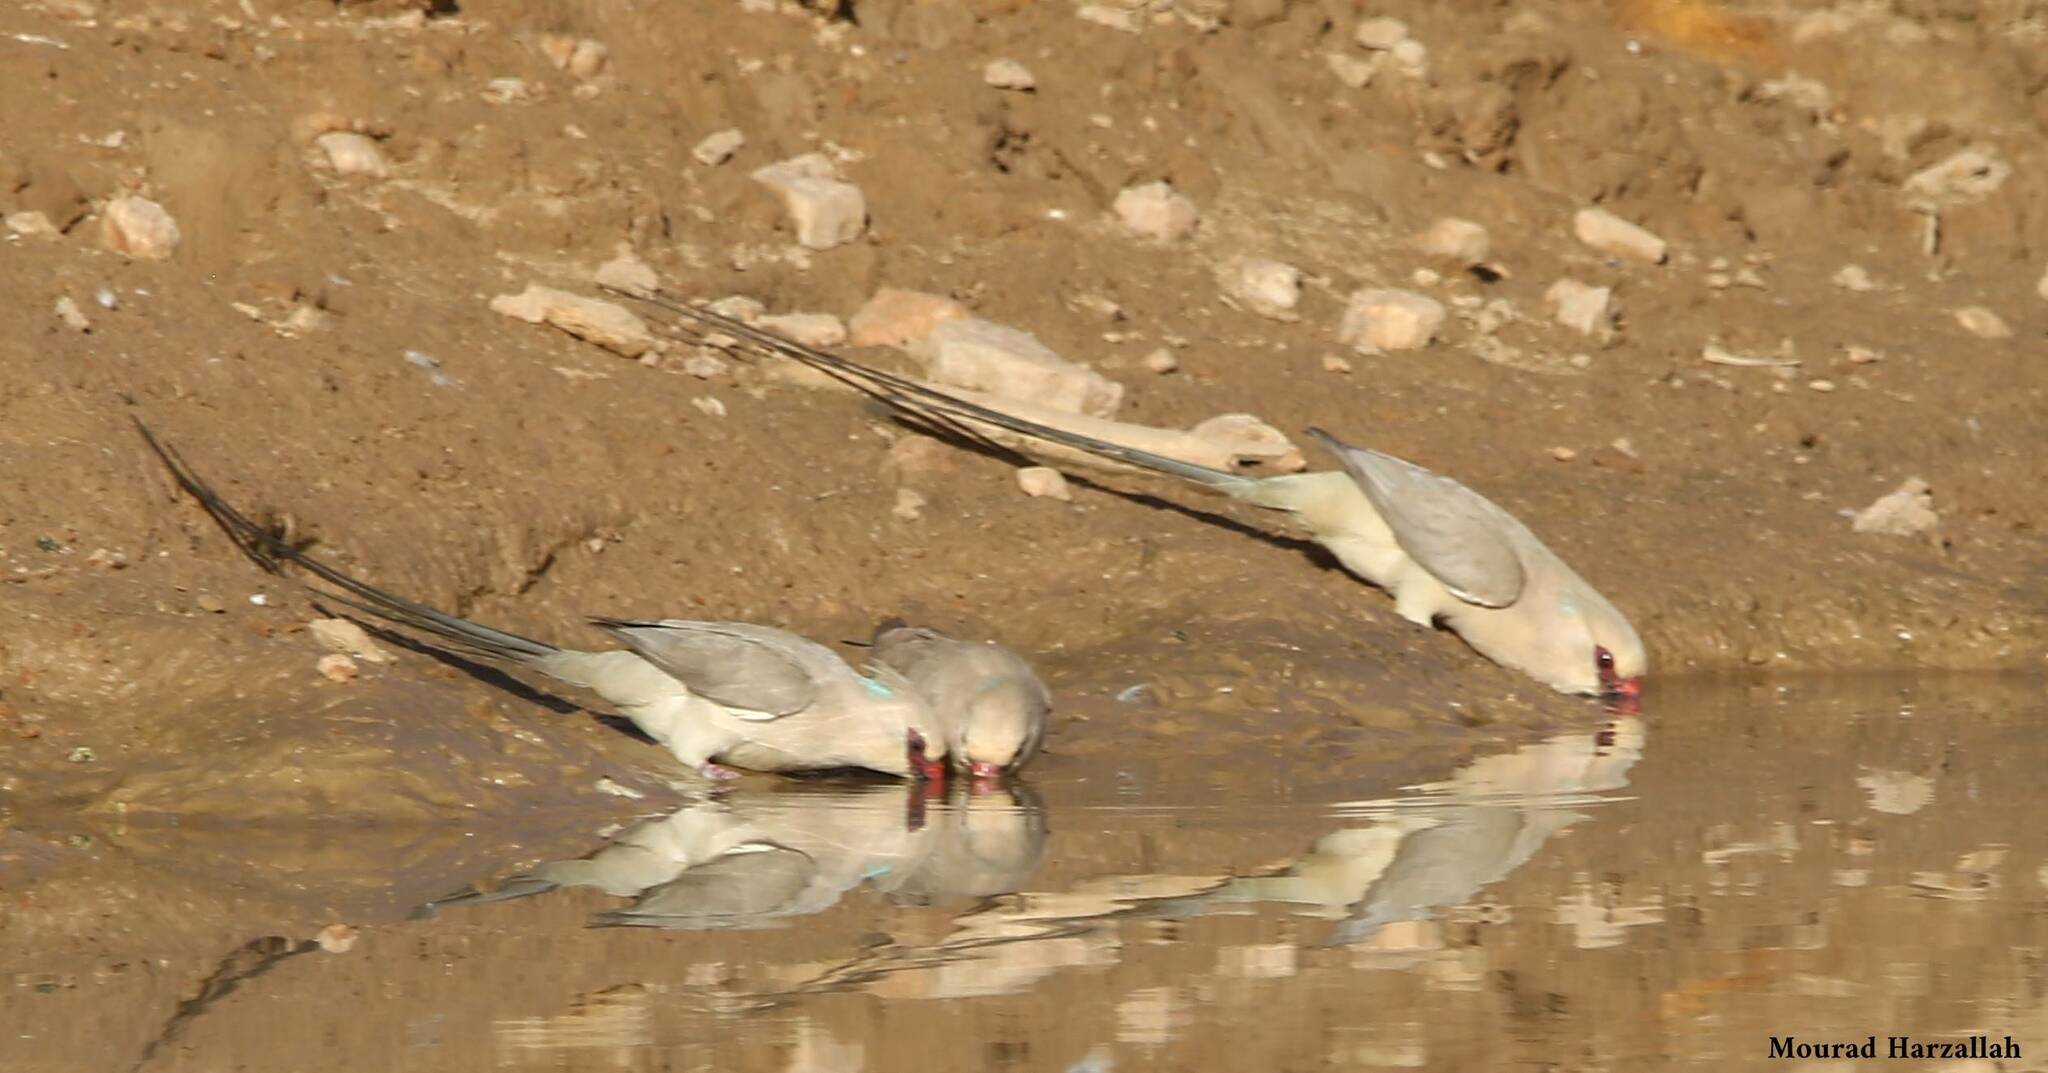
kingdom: Animalia
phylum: Chordata
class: Aves
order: Coliiformes
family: Coliidae
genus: Urocolius
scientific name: Urocolius macrourus
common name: Blue-naped mousebird
